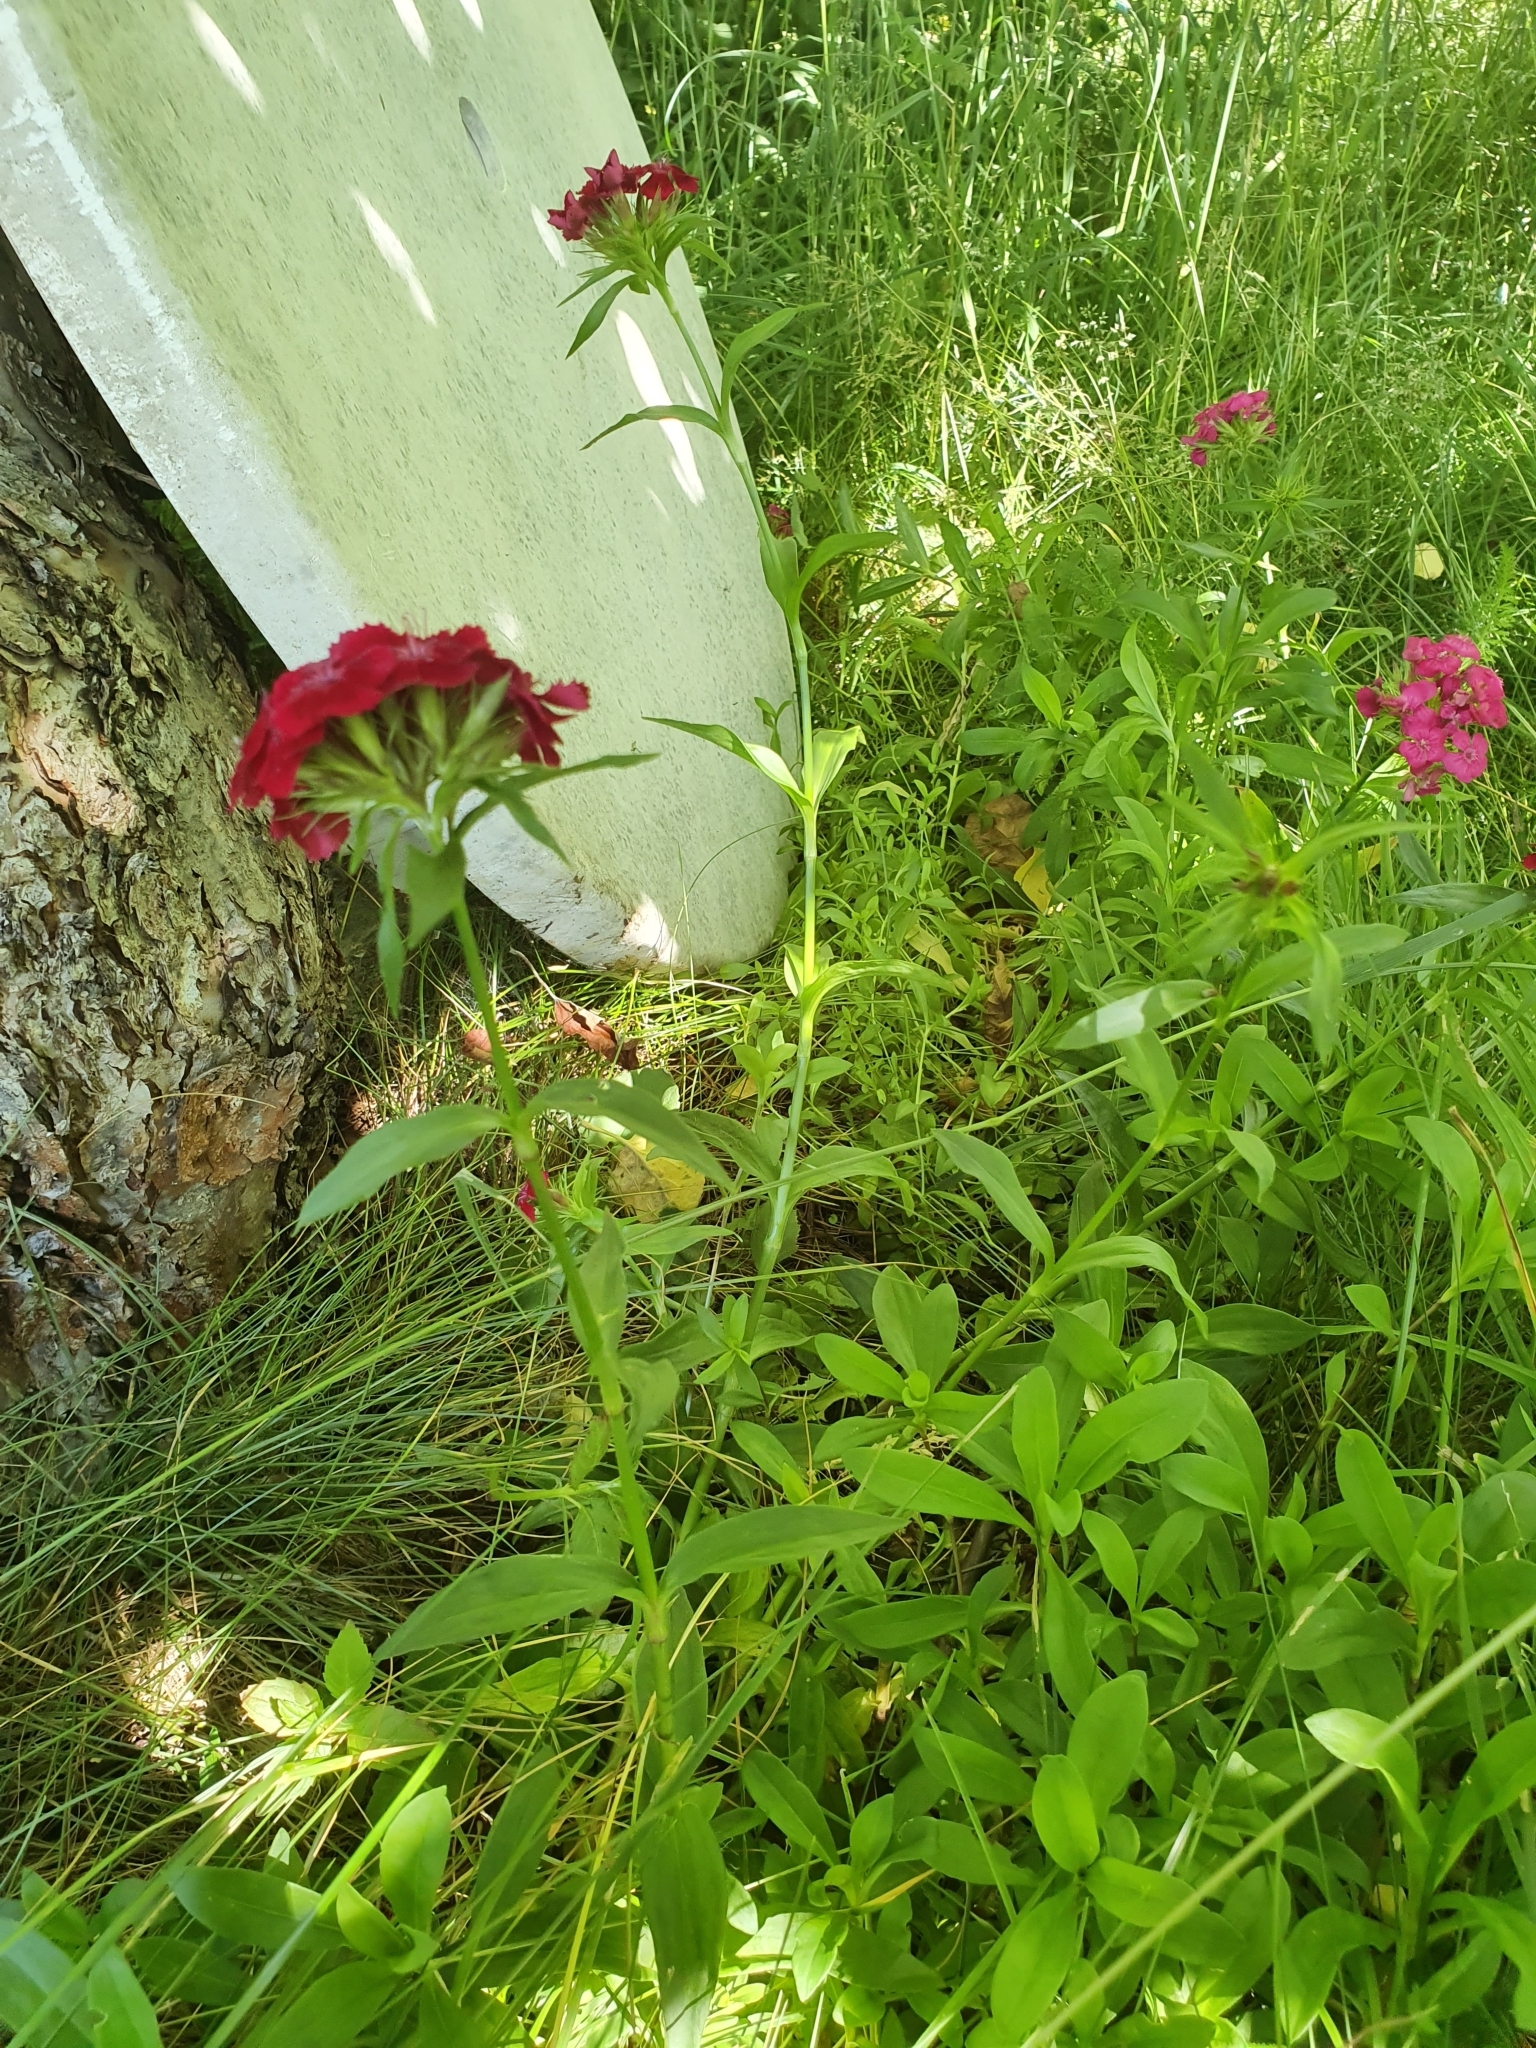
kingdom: Plantae
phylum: Tracheophyta
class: Magnoliopsida
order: Caryophyllales
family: Caryophyllaceae
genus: Dianthus
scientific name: Dianthus barbatus
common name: Sweet-william
